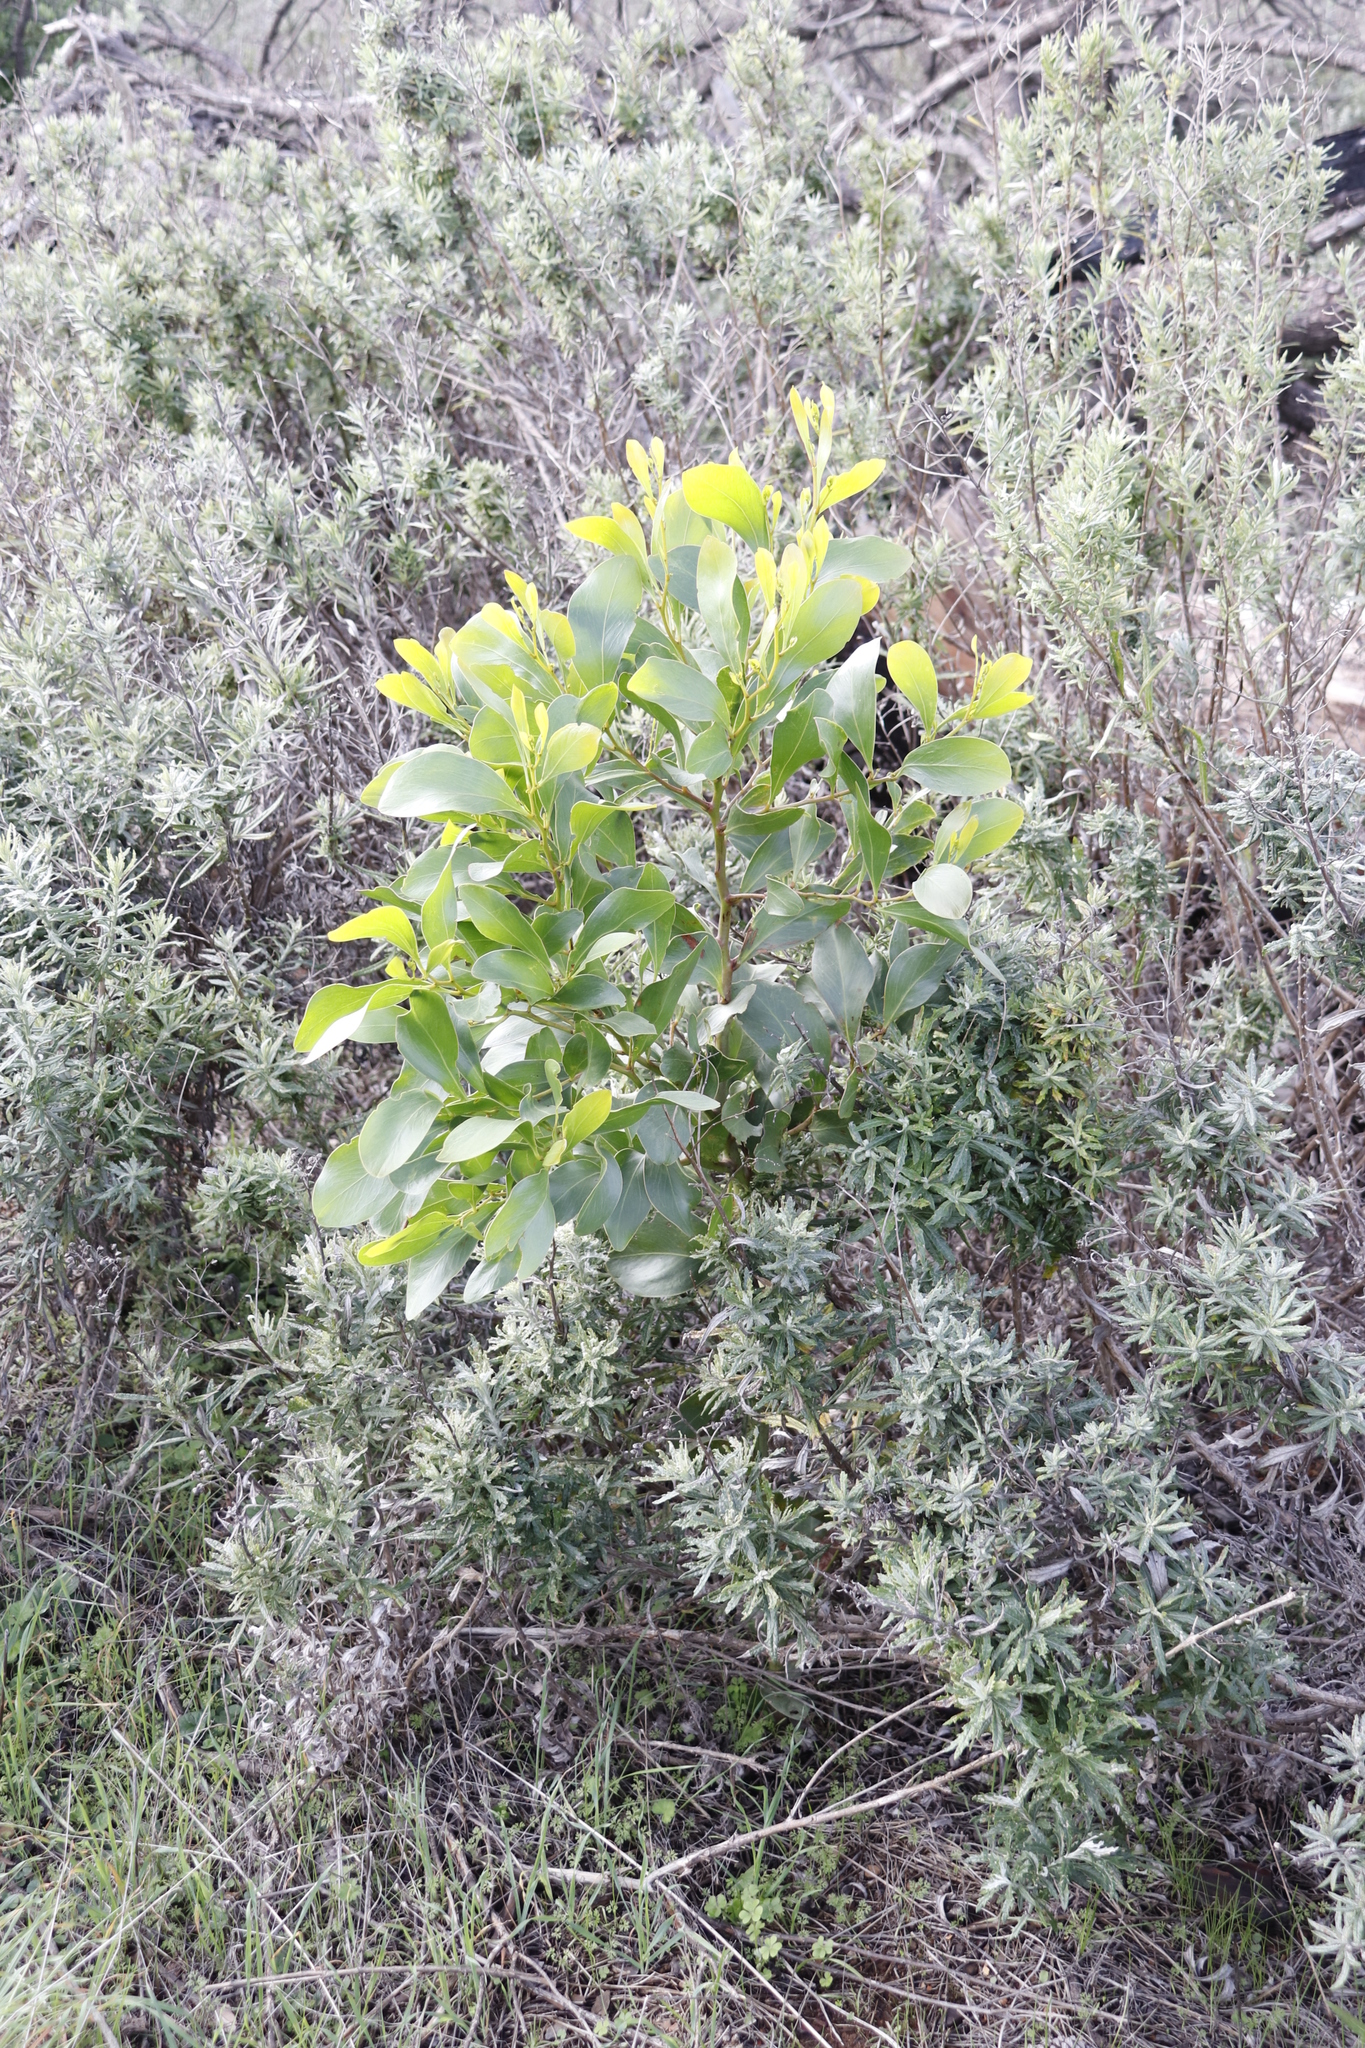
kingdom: Plantae
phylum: Tracheophyta
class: Magnoliopsida
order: Fabales
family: Fabaceae
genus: Acacia
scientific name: Acacia pycnantha
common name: Golden wattle
